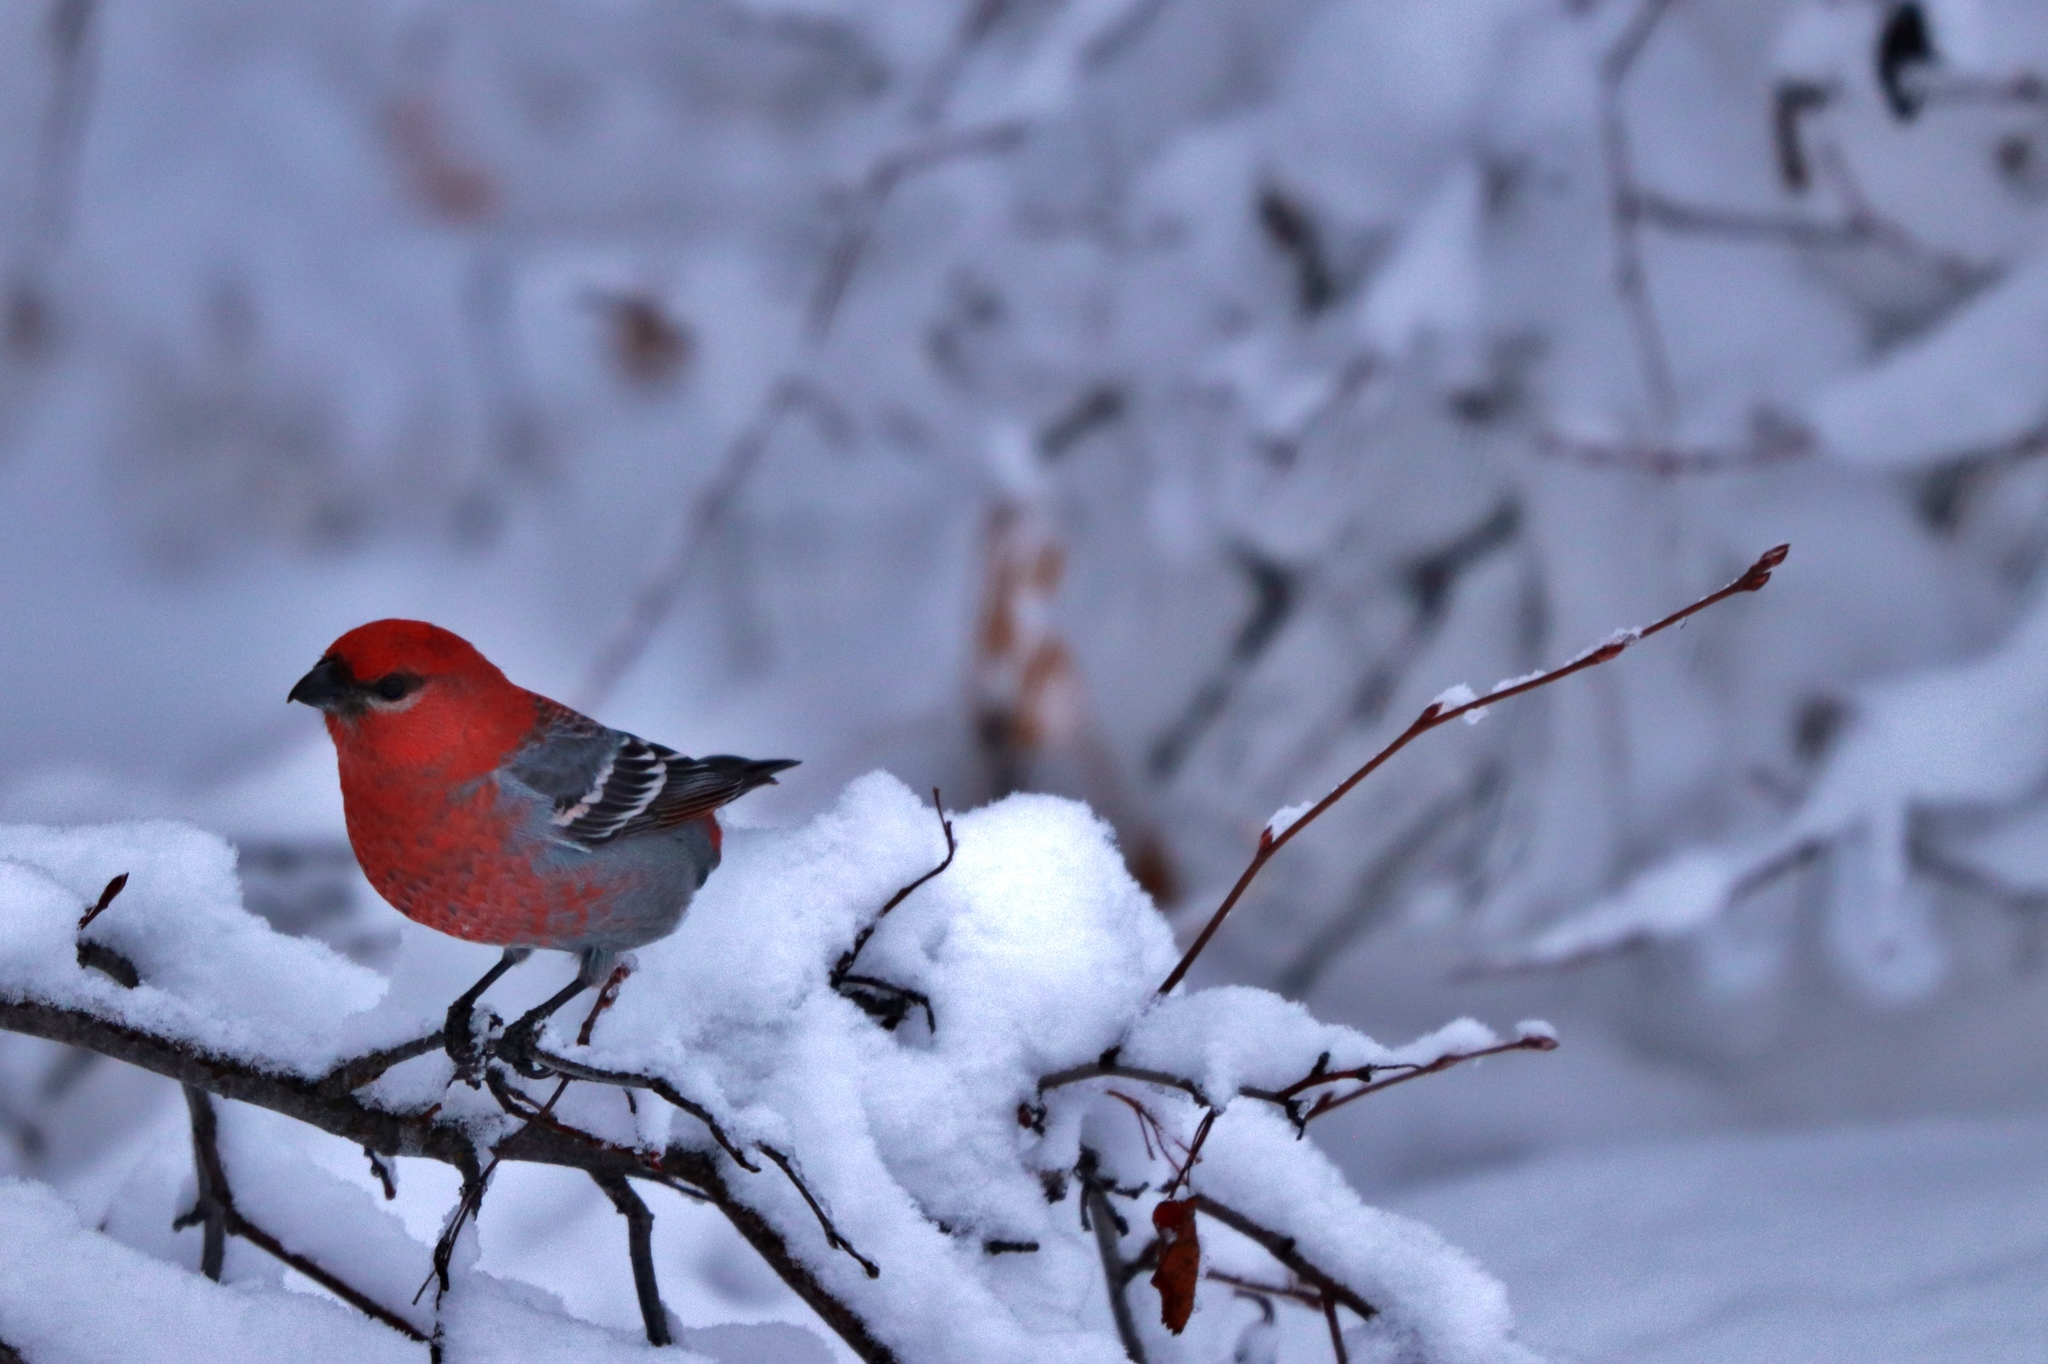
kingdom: Animalia
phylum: Chordata
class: Aves
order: Passeriformes
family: Fringillidae
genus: Pinicola
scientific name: Pinicola enucleator
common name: Pine grosbeak
